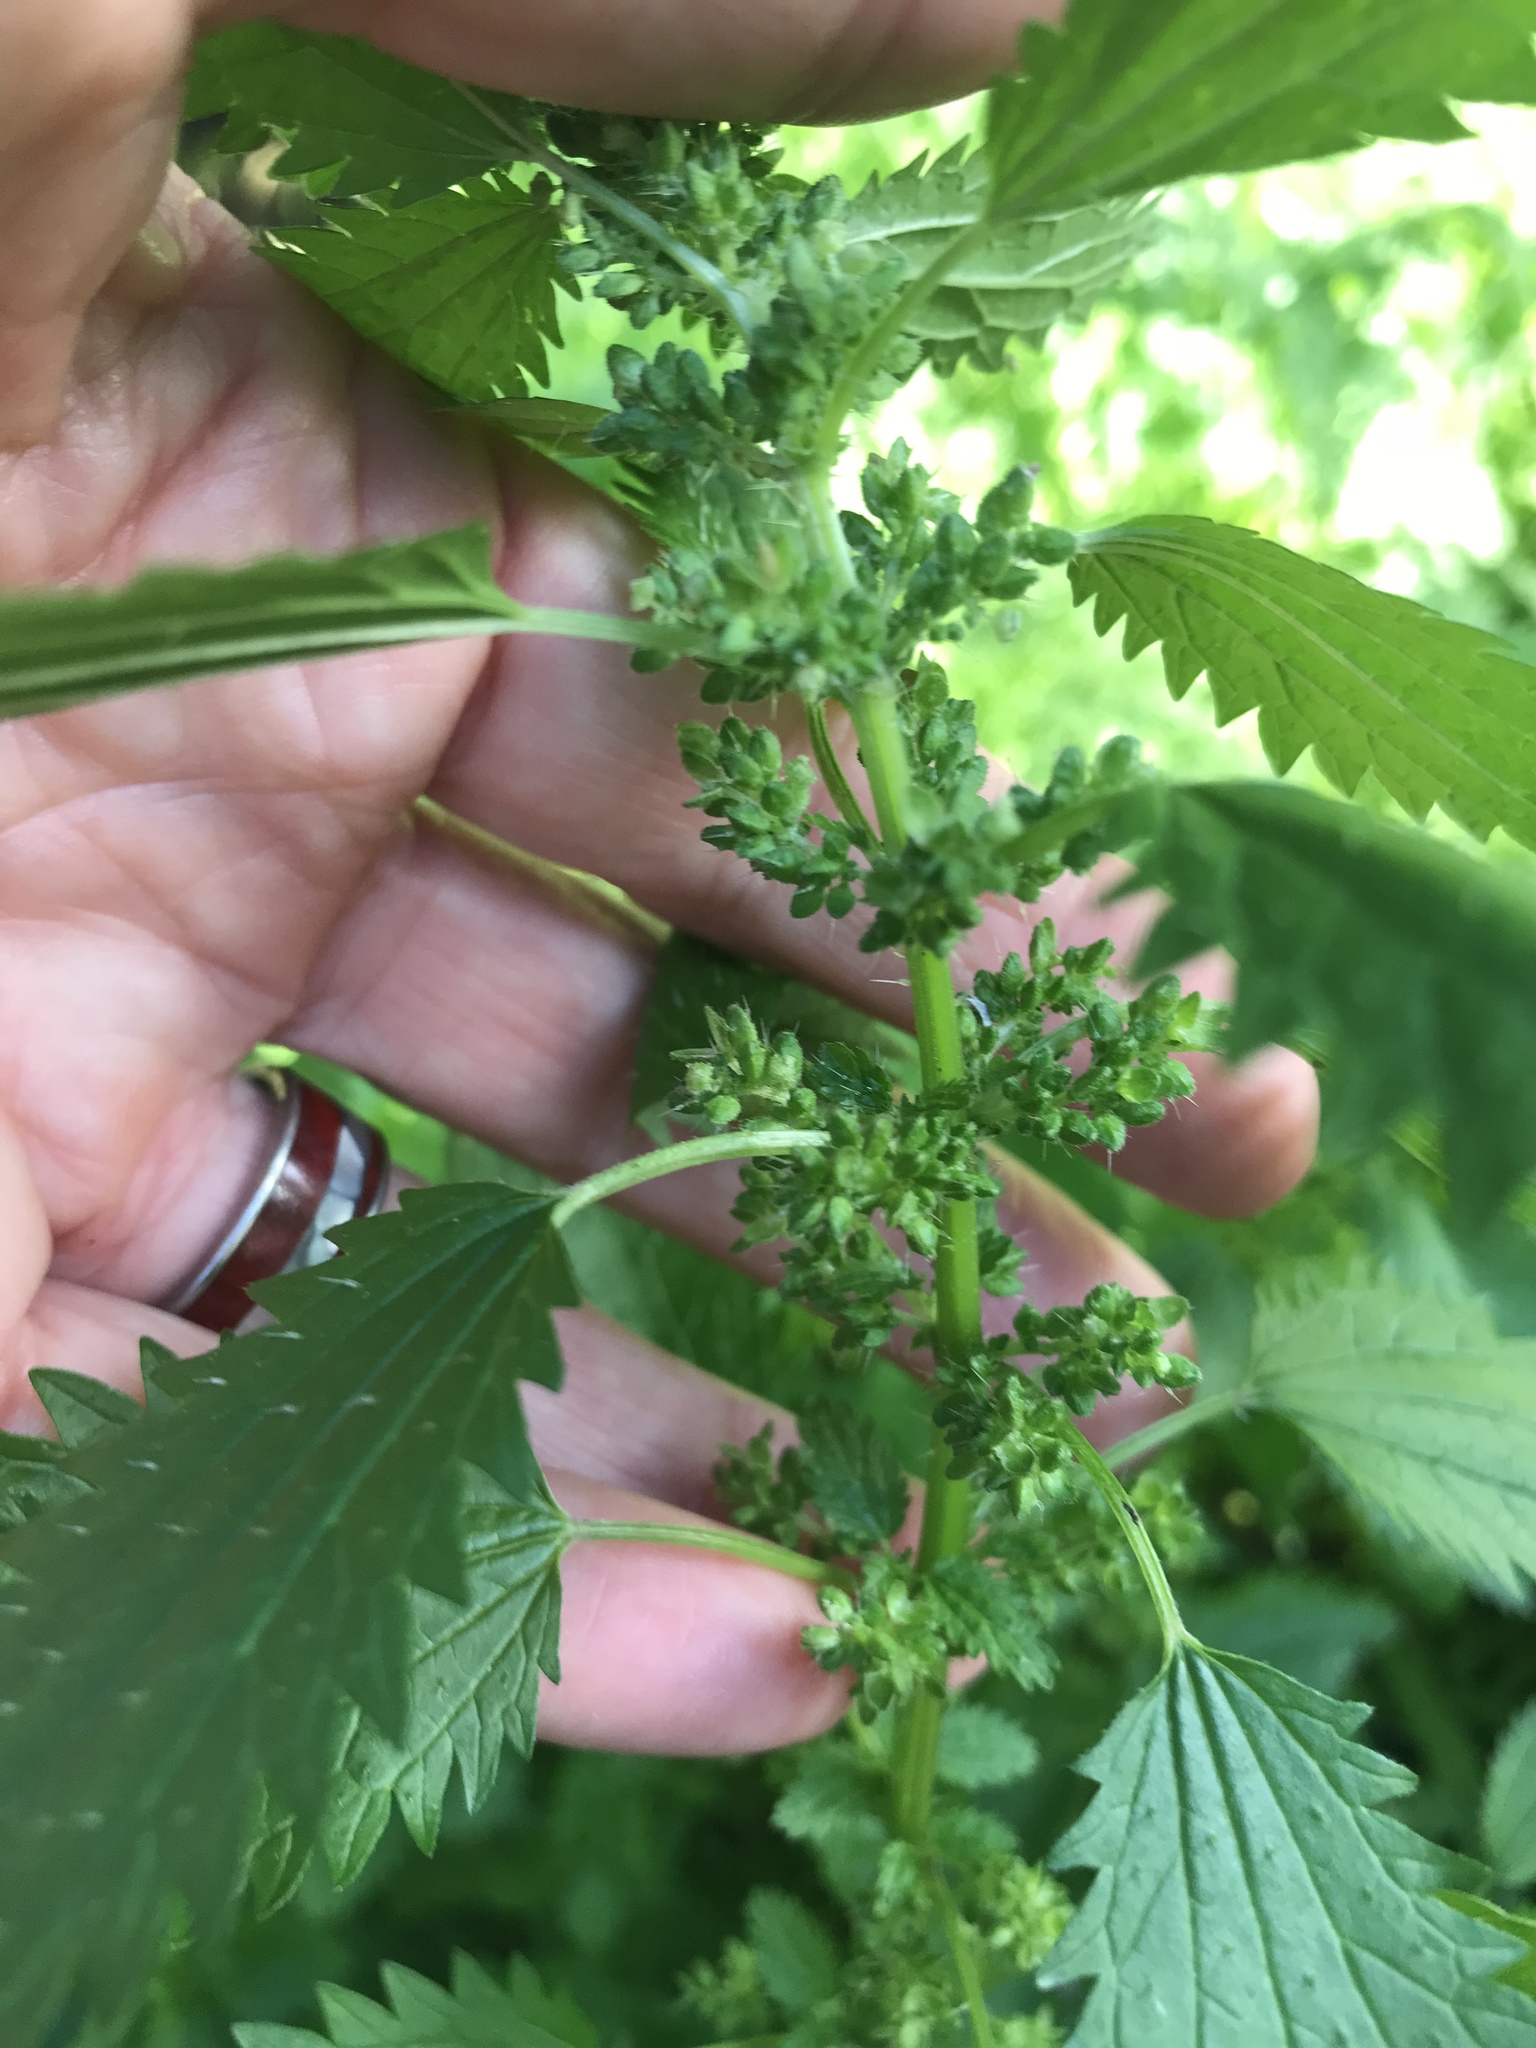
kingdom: Plantae
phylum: Tracheophyta
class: Magnoliopsida
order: Rosales
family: Urticaceae
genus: Urtica
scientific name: Urtica urens
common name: Dwarf nettle
